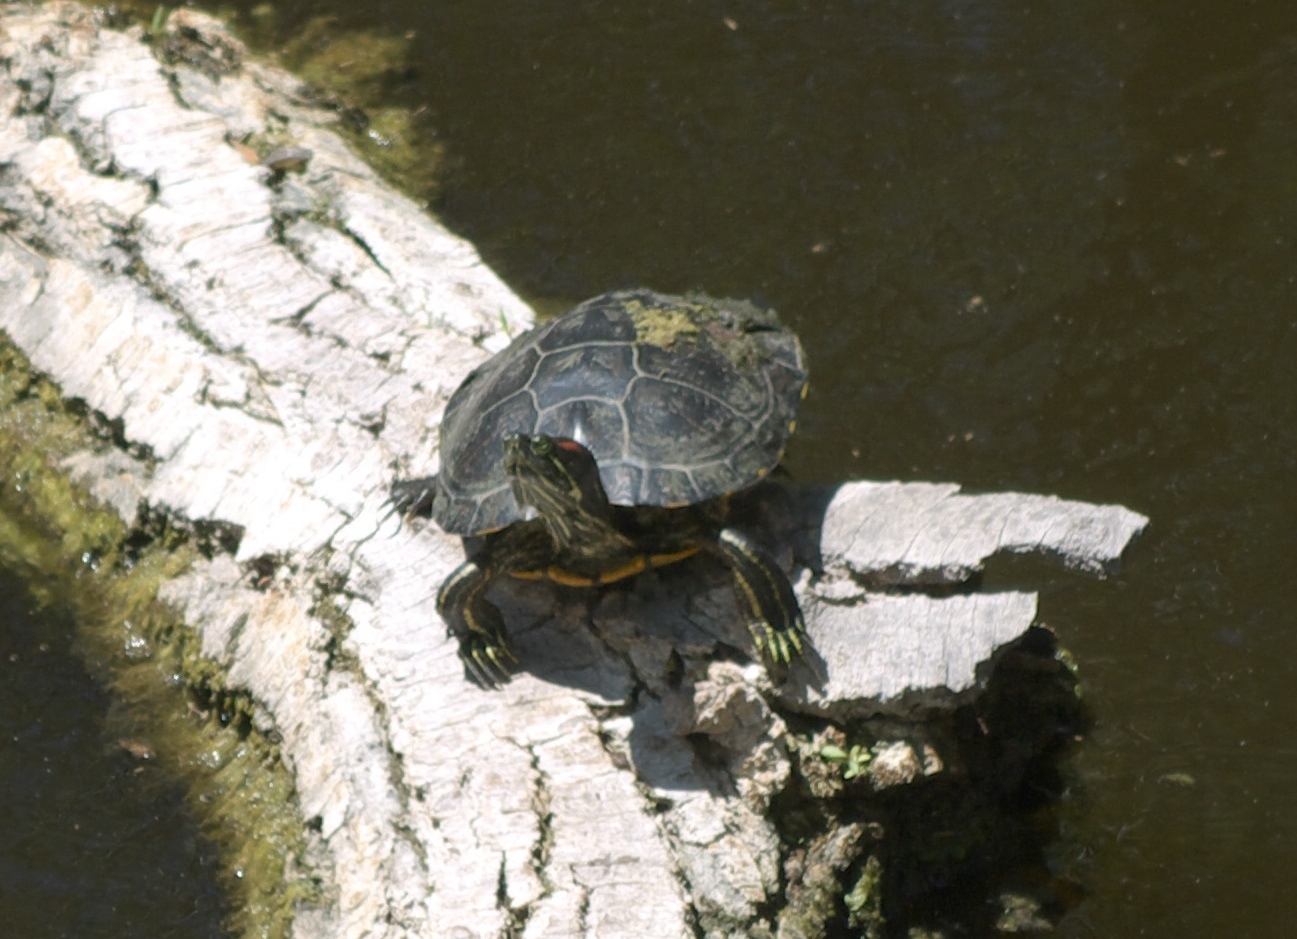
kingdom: Animalia
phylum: Chordata
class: Testudines
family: Emydidae
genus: Trachemys
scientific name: Trachemys scripta
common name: Slider
